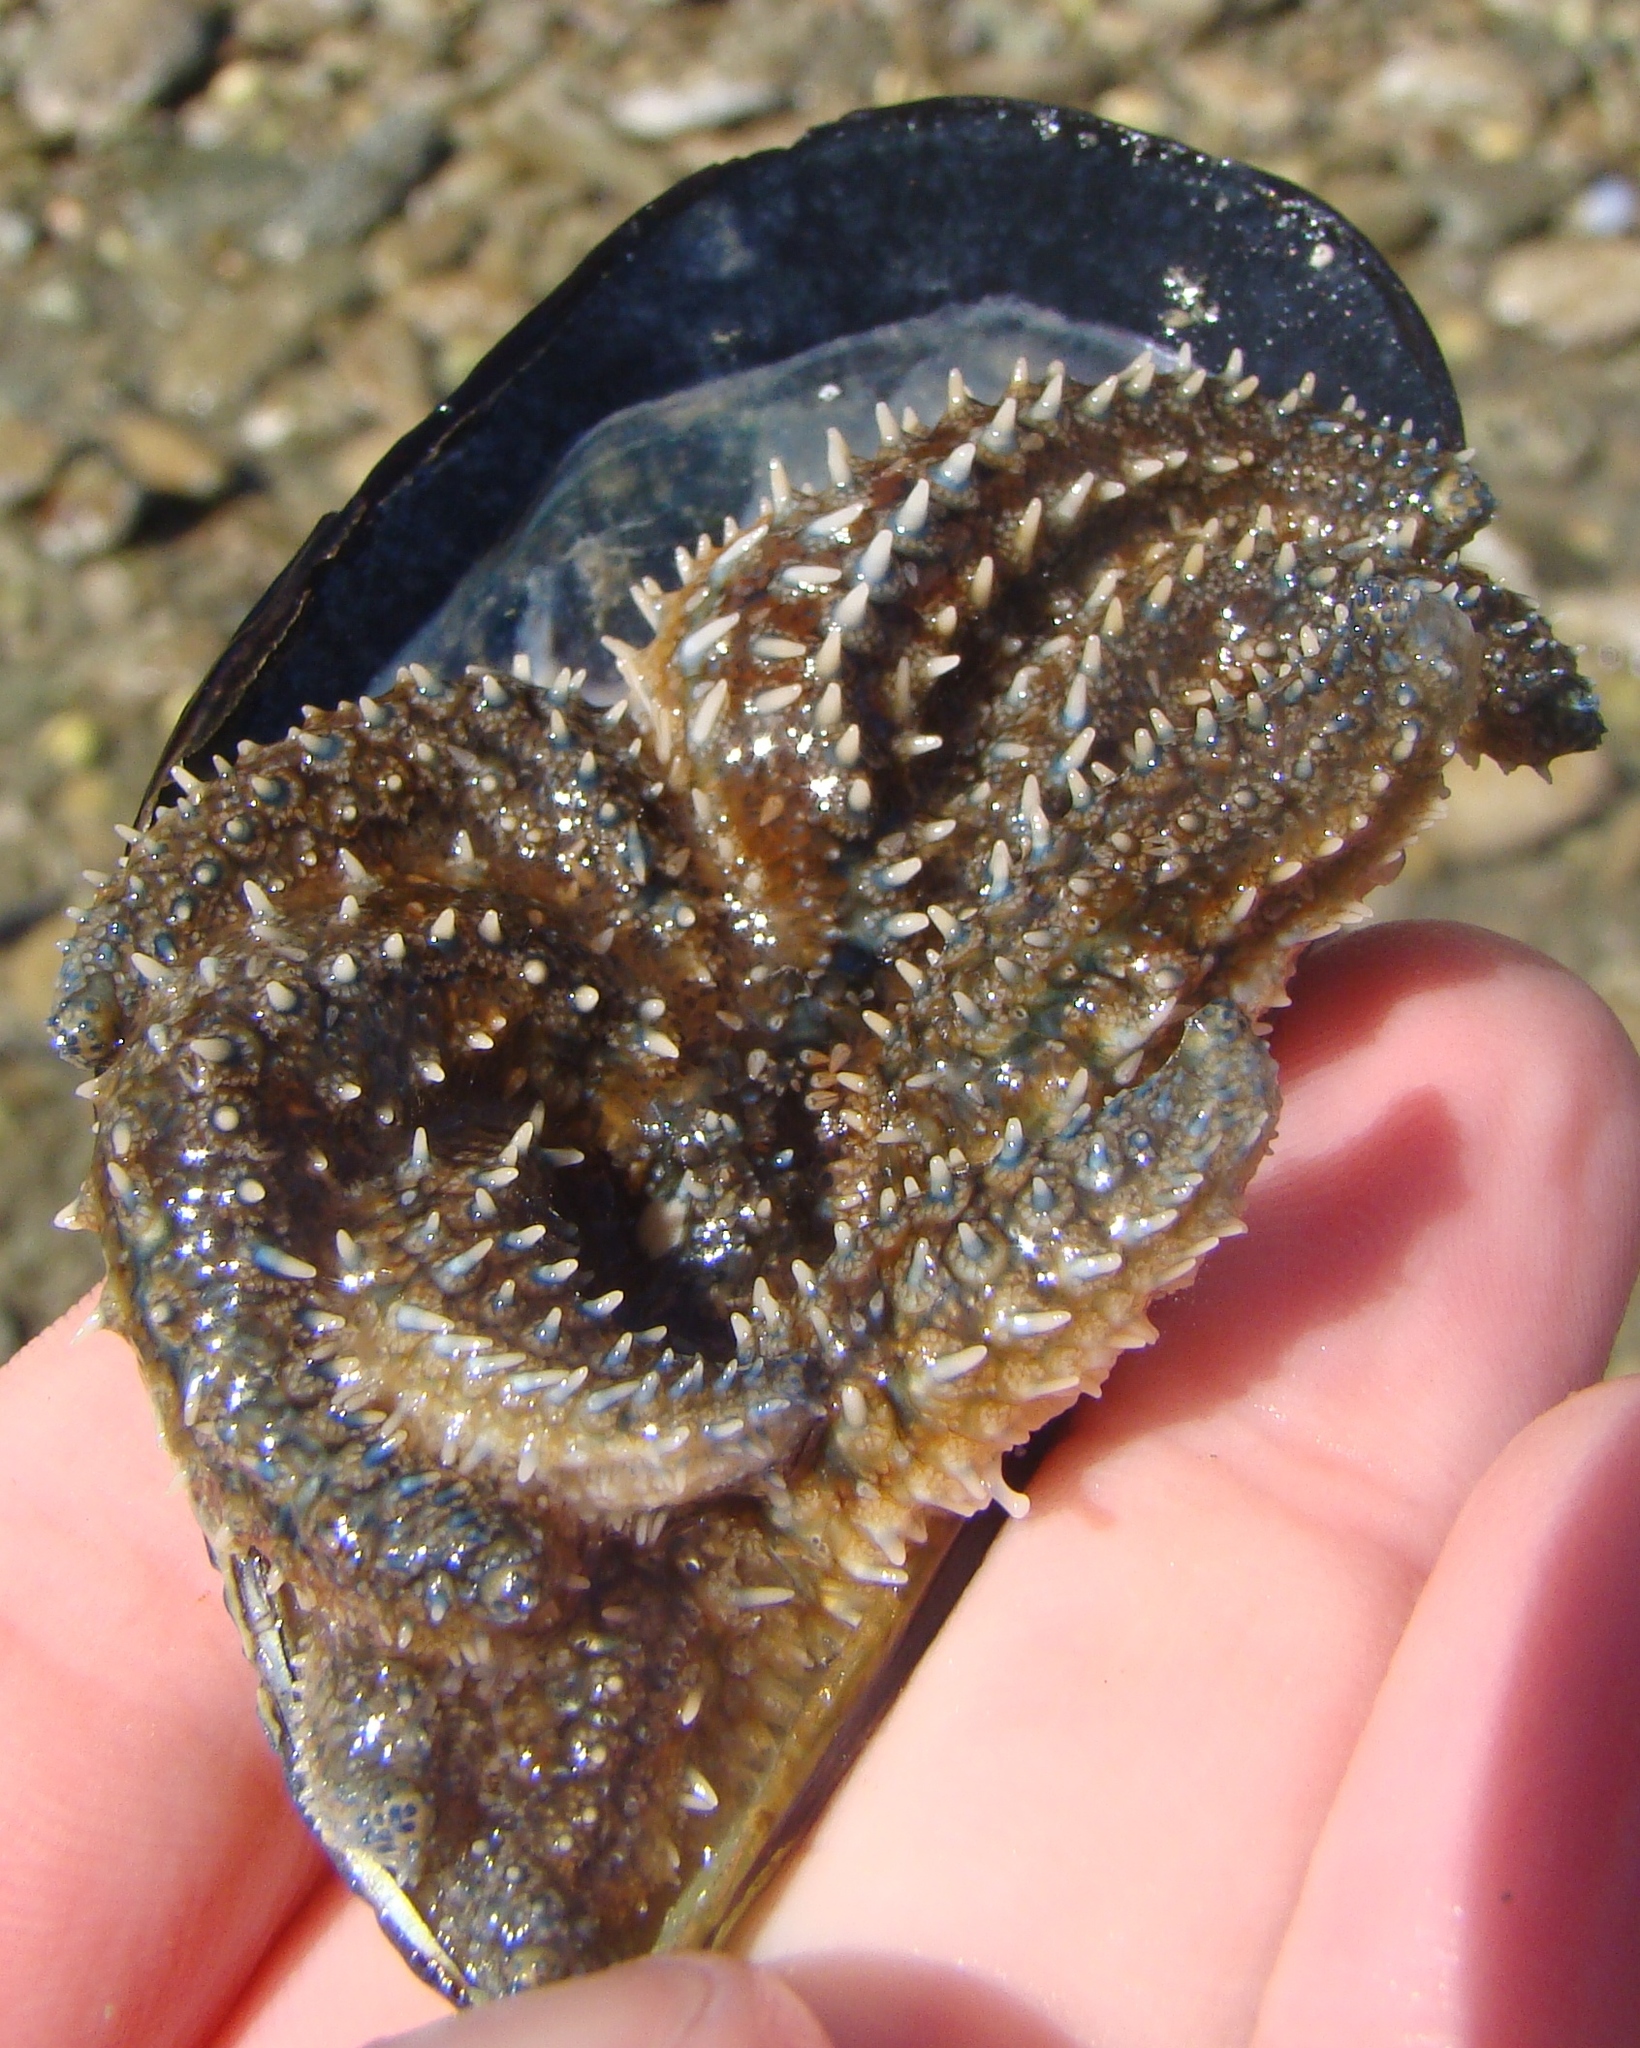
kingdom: Animalia
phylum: Echinodermata
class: Asteroidea
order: Forcipulatida
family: Asteriidae
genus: Coscinasterias
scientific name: Coscinasterias muricata
